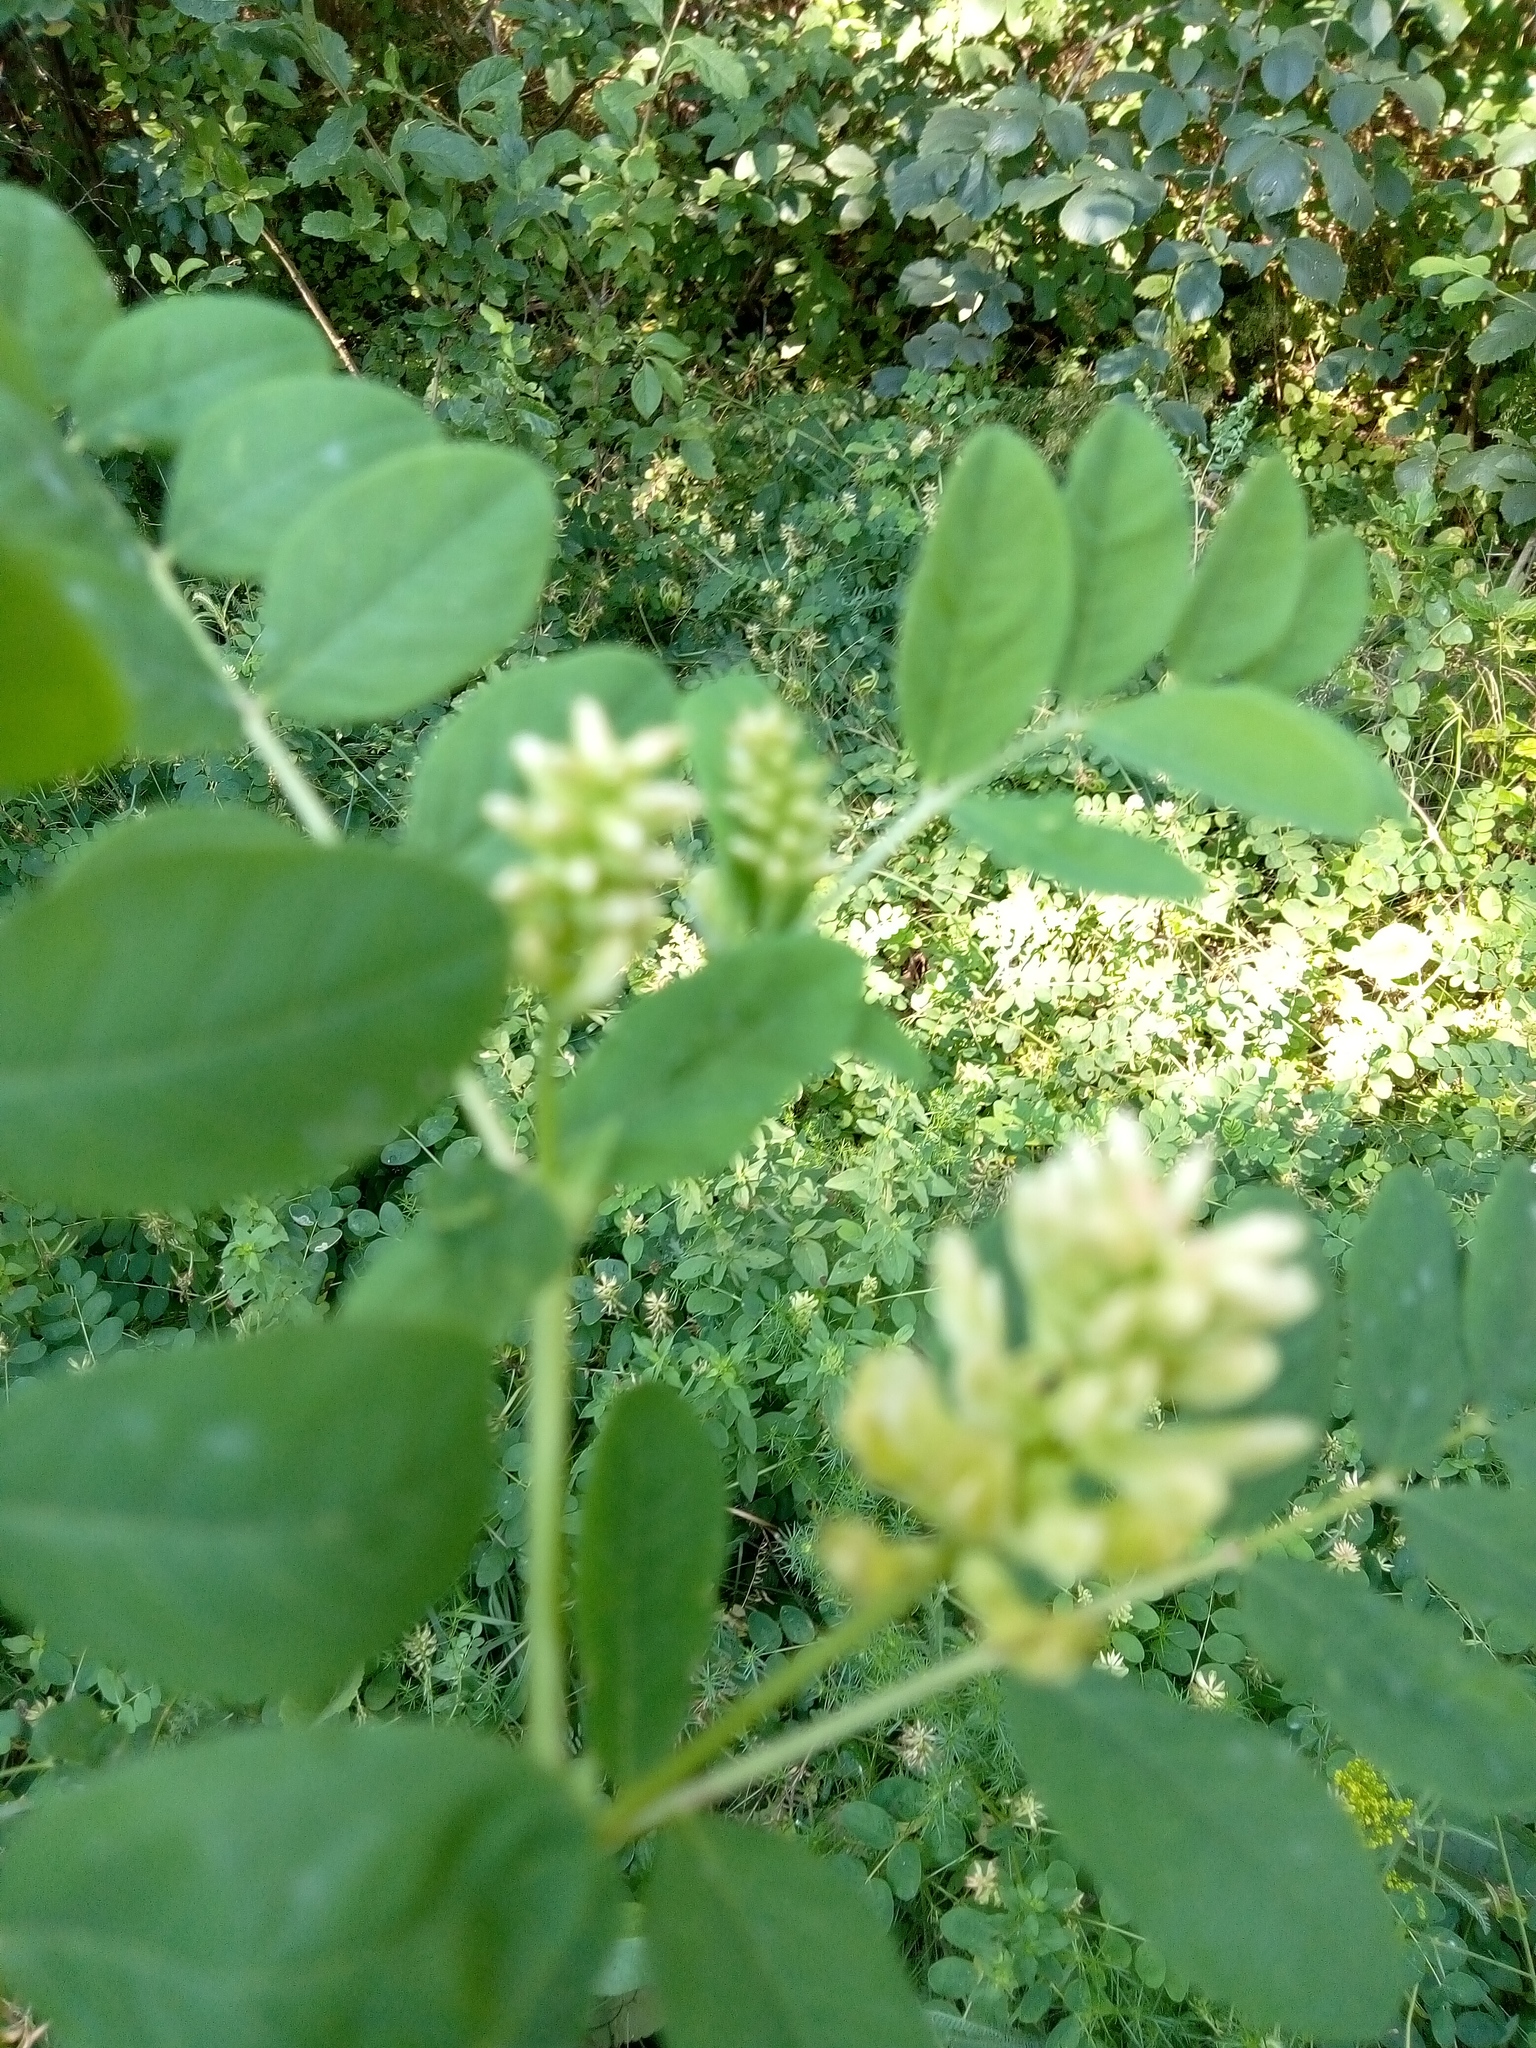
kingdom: Plantae
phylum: Tracheophyta
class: Magnoliopsida
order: Fabales
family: Fabaceae
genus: Astragalus
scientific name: Astragalus glycyphyllos
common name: Wild liquorice
